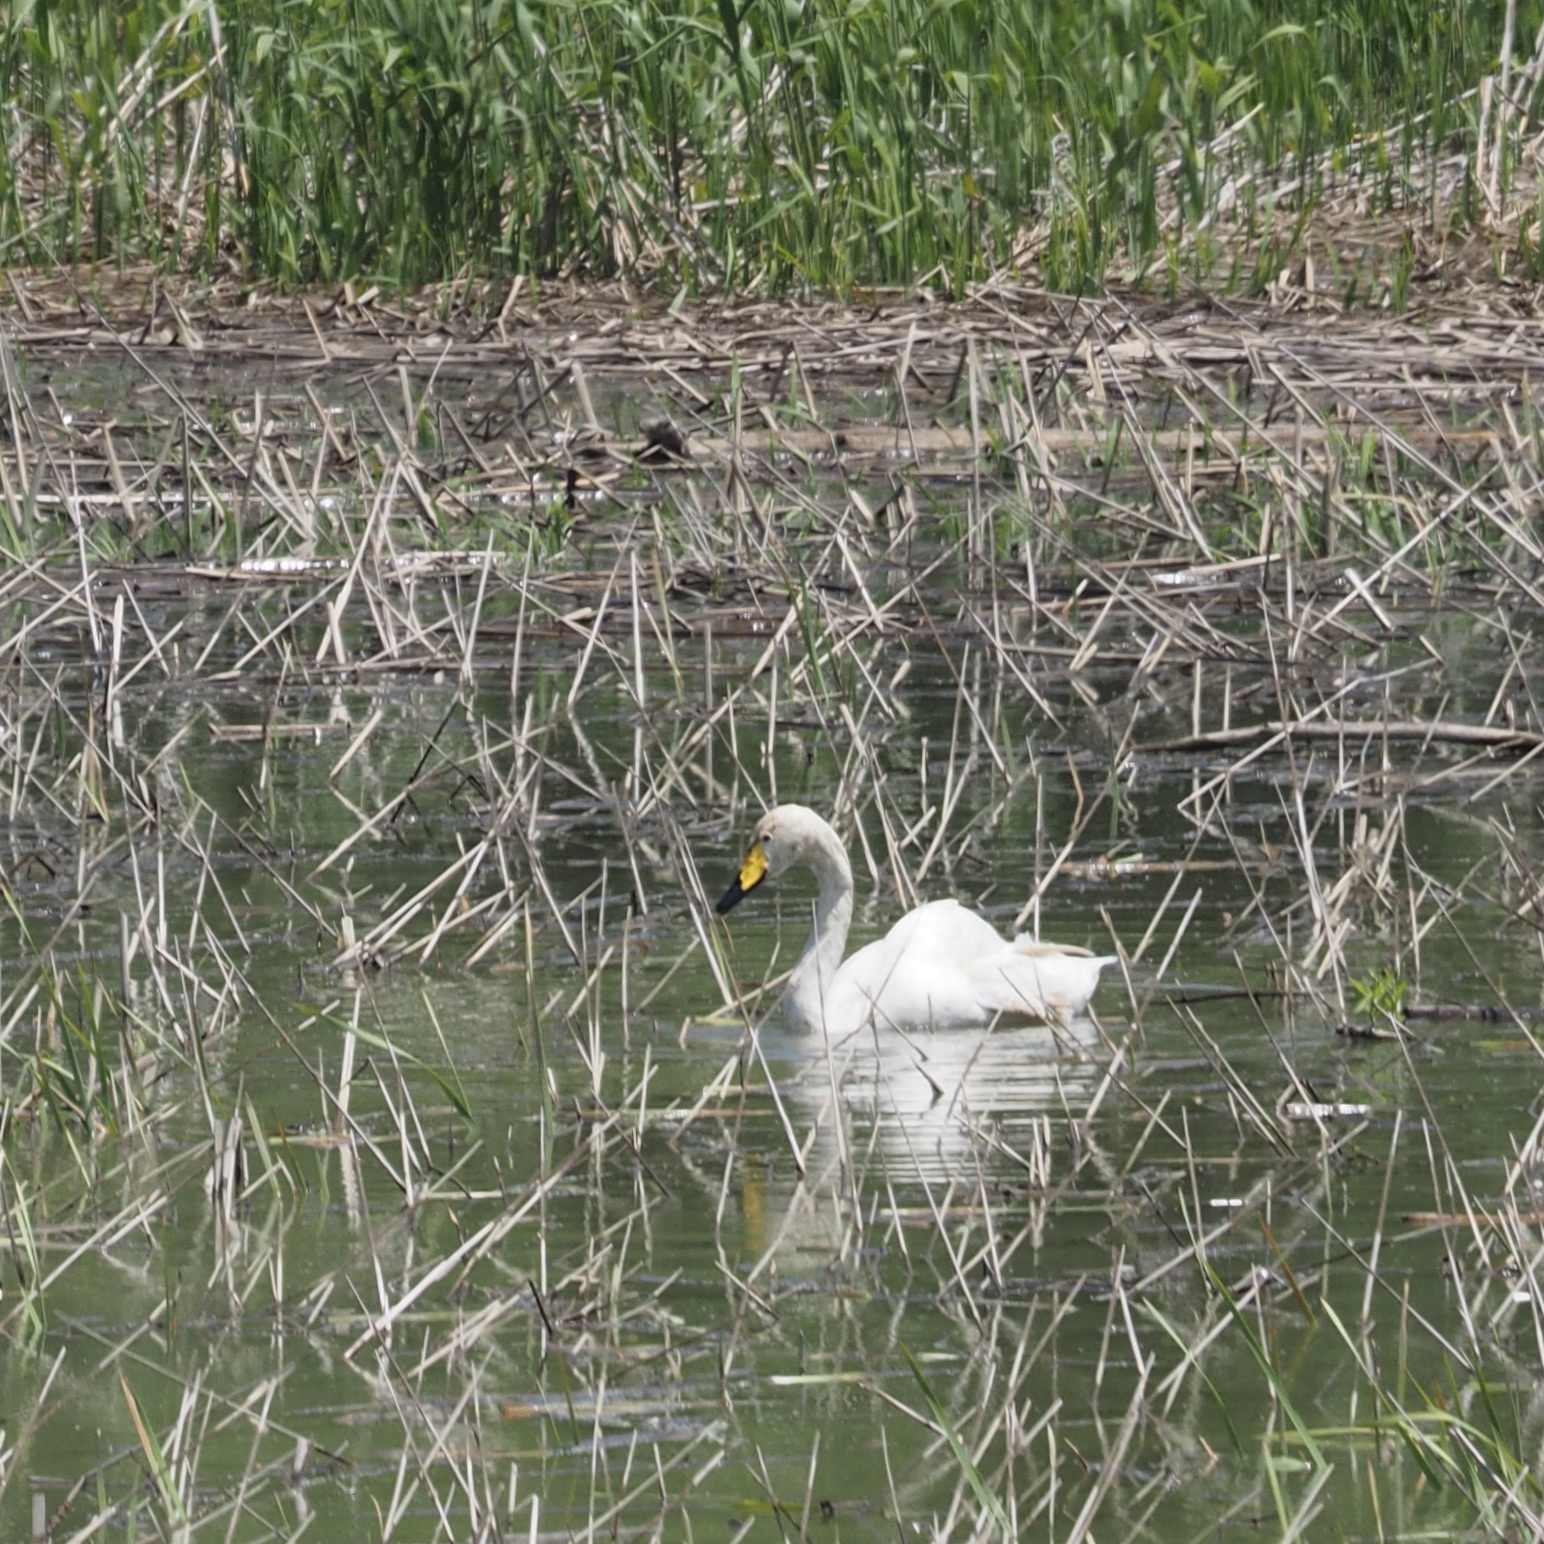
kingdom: Animalia
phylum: Chordata
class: Aves
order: Anseriformes
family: Anatidae
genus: Cygnus
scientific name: Cygnus cygnus
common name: Whooper swan
